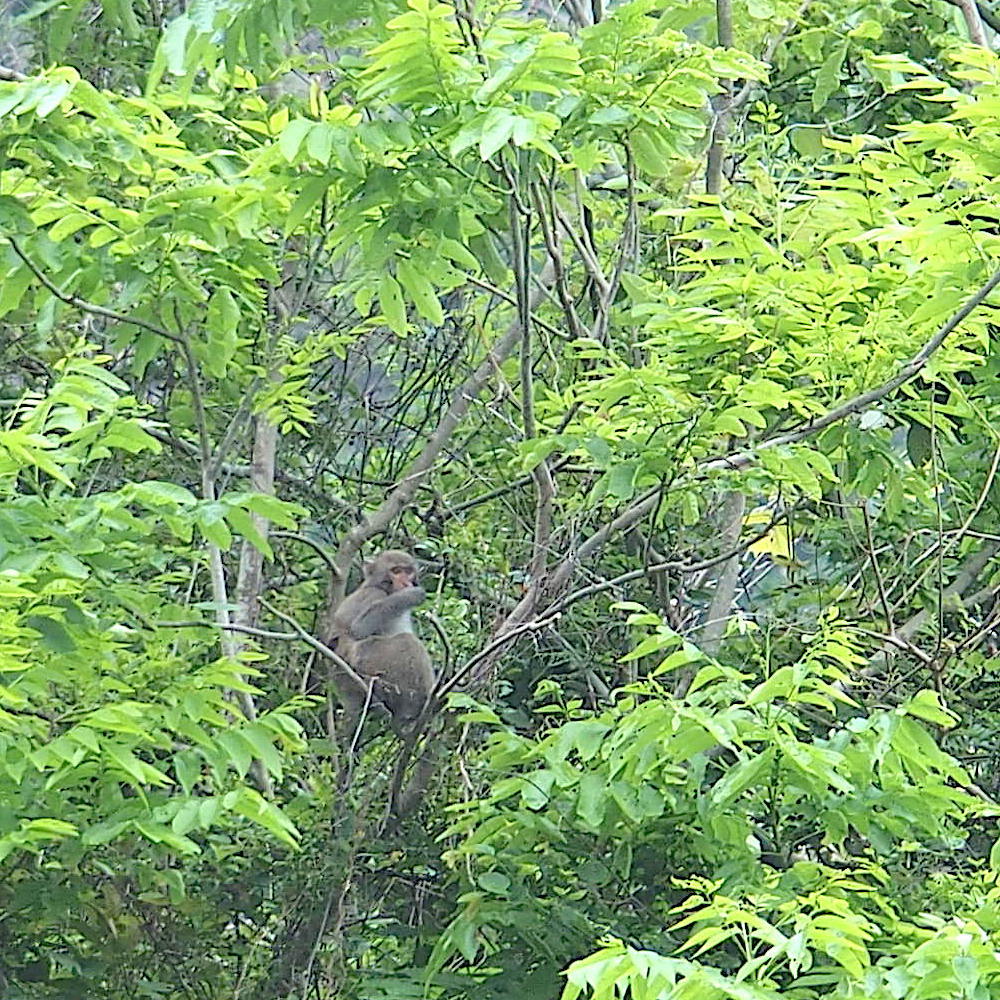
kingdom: Animalia
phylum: Chordata
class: Mammalia
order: Primates
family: Cercopithecidae
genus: Macaca
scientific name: Macaca cyclopis
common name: Formosan rock macaque
